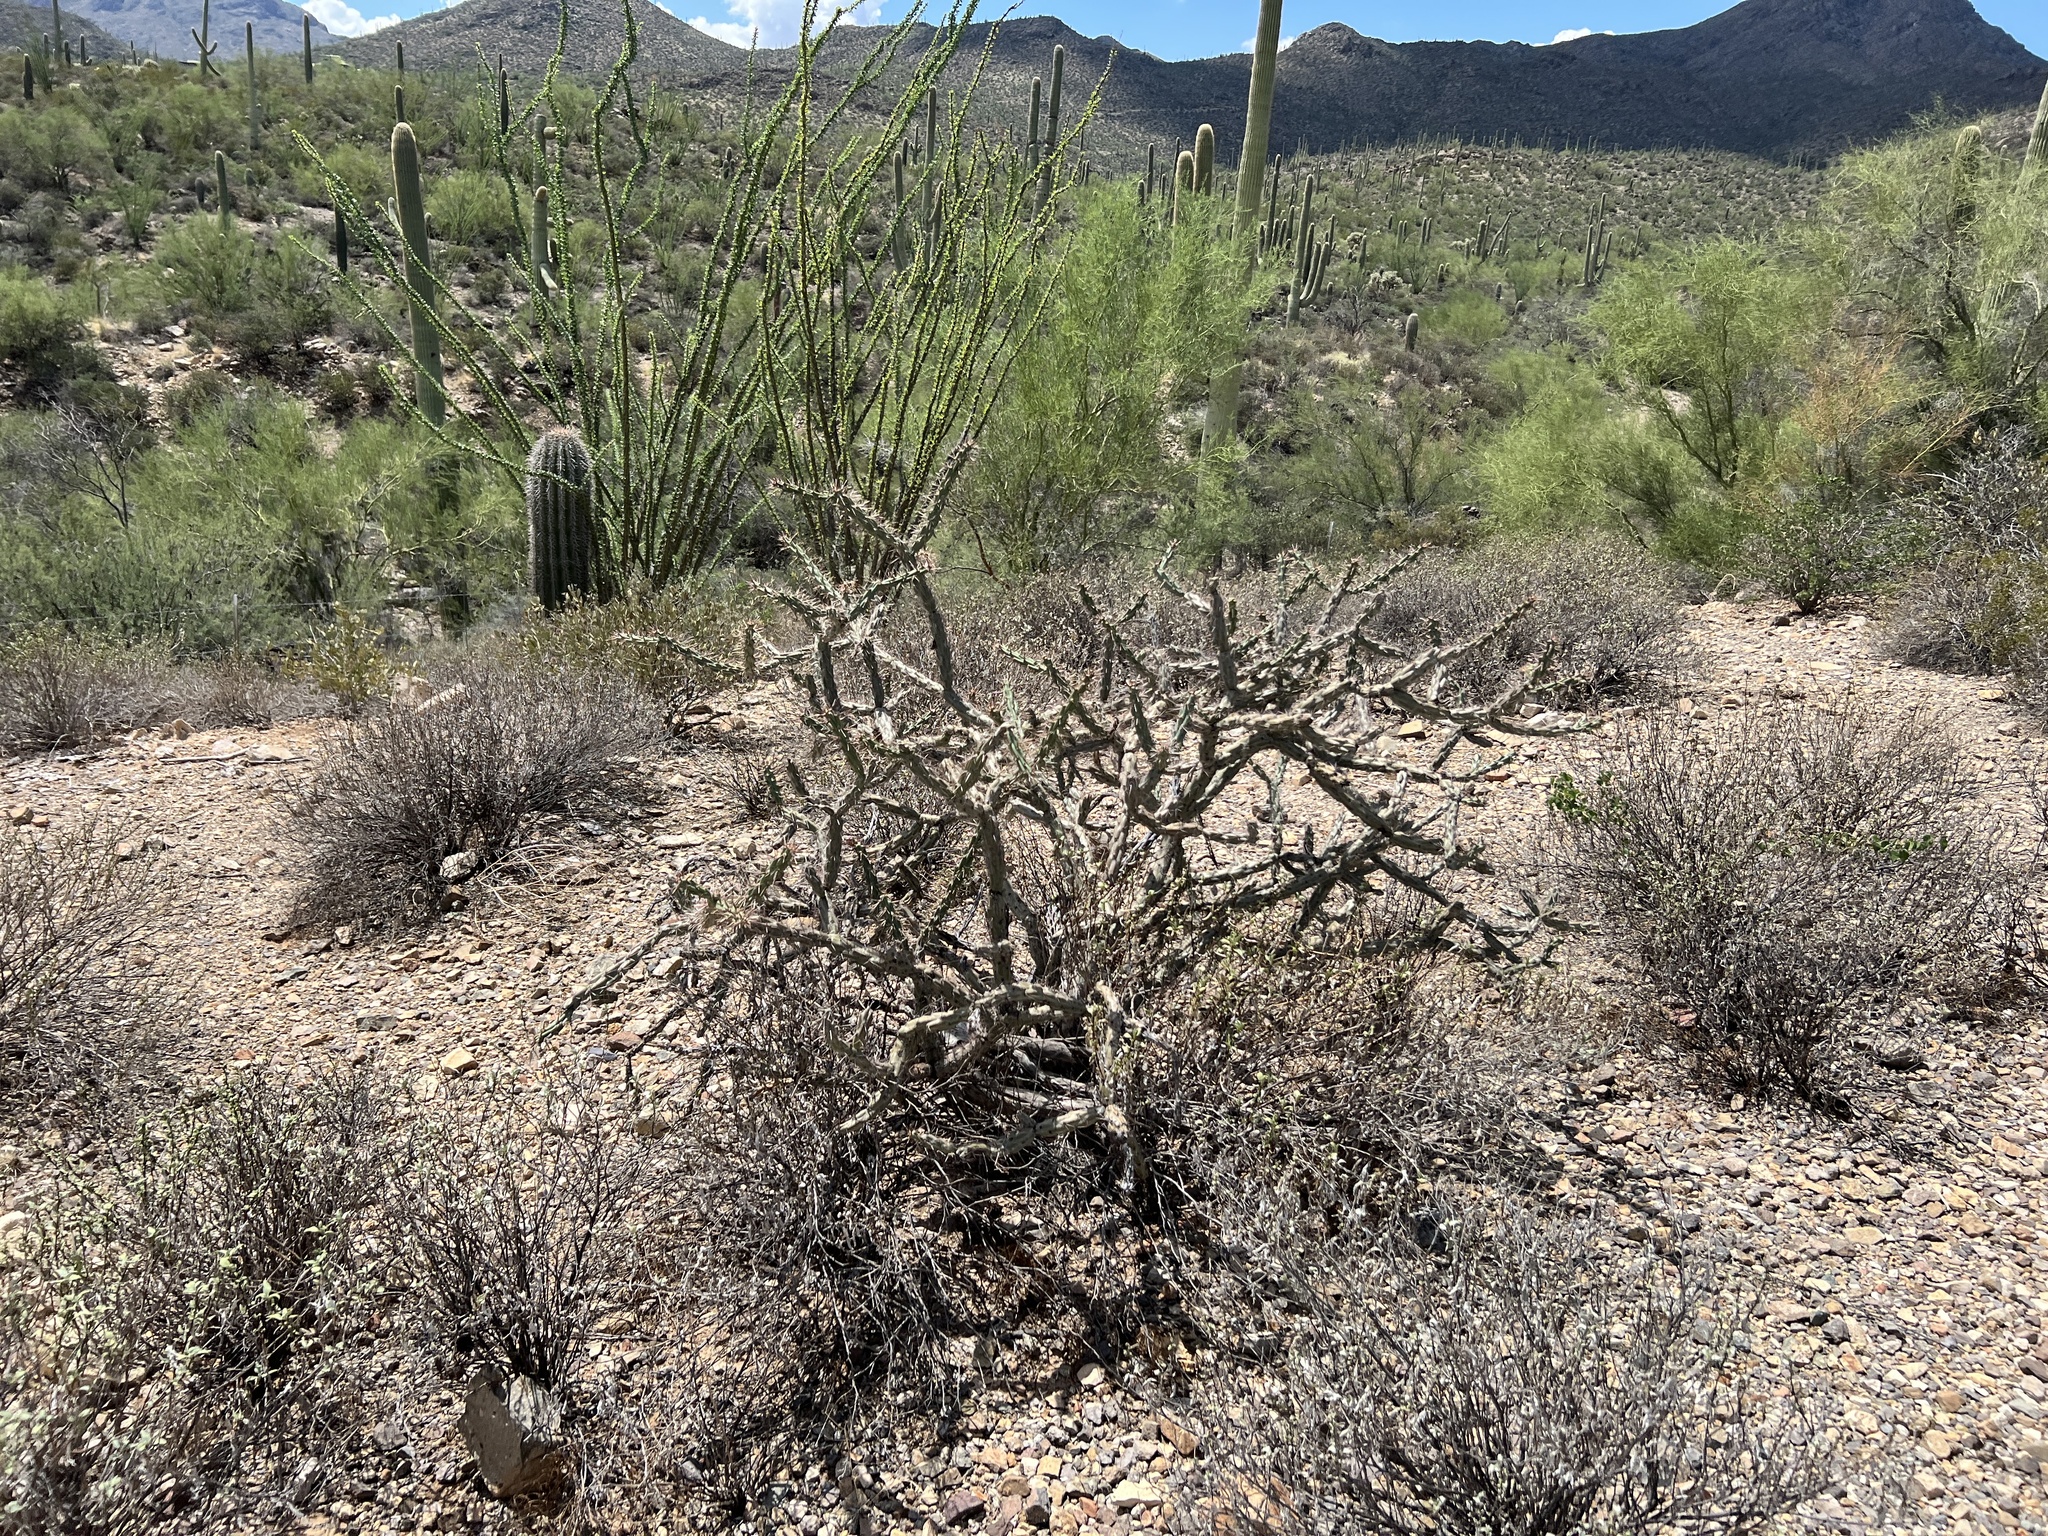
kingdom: Plantae
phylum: Tracheophyta
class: Magnoliopsida
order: Caryophyllales
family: Cactaceae
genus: Cylindropuntia
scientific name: Cylindropuntia acanthocarpa
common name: Buckhorn cholla
